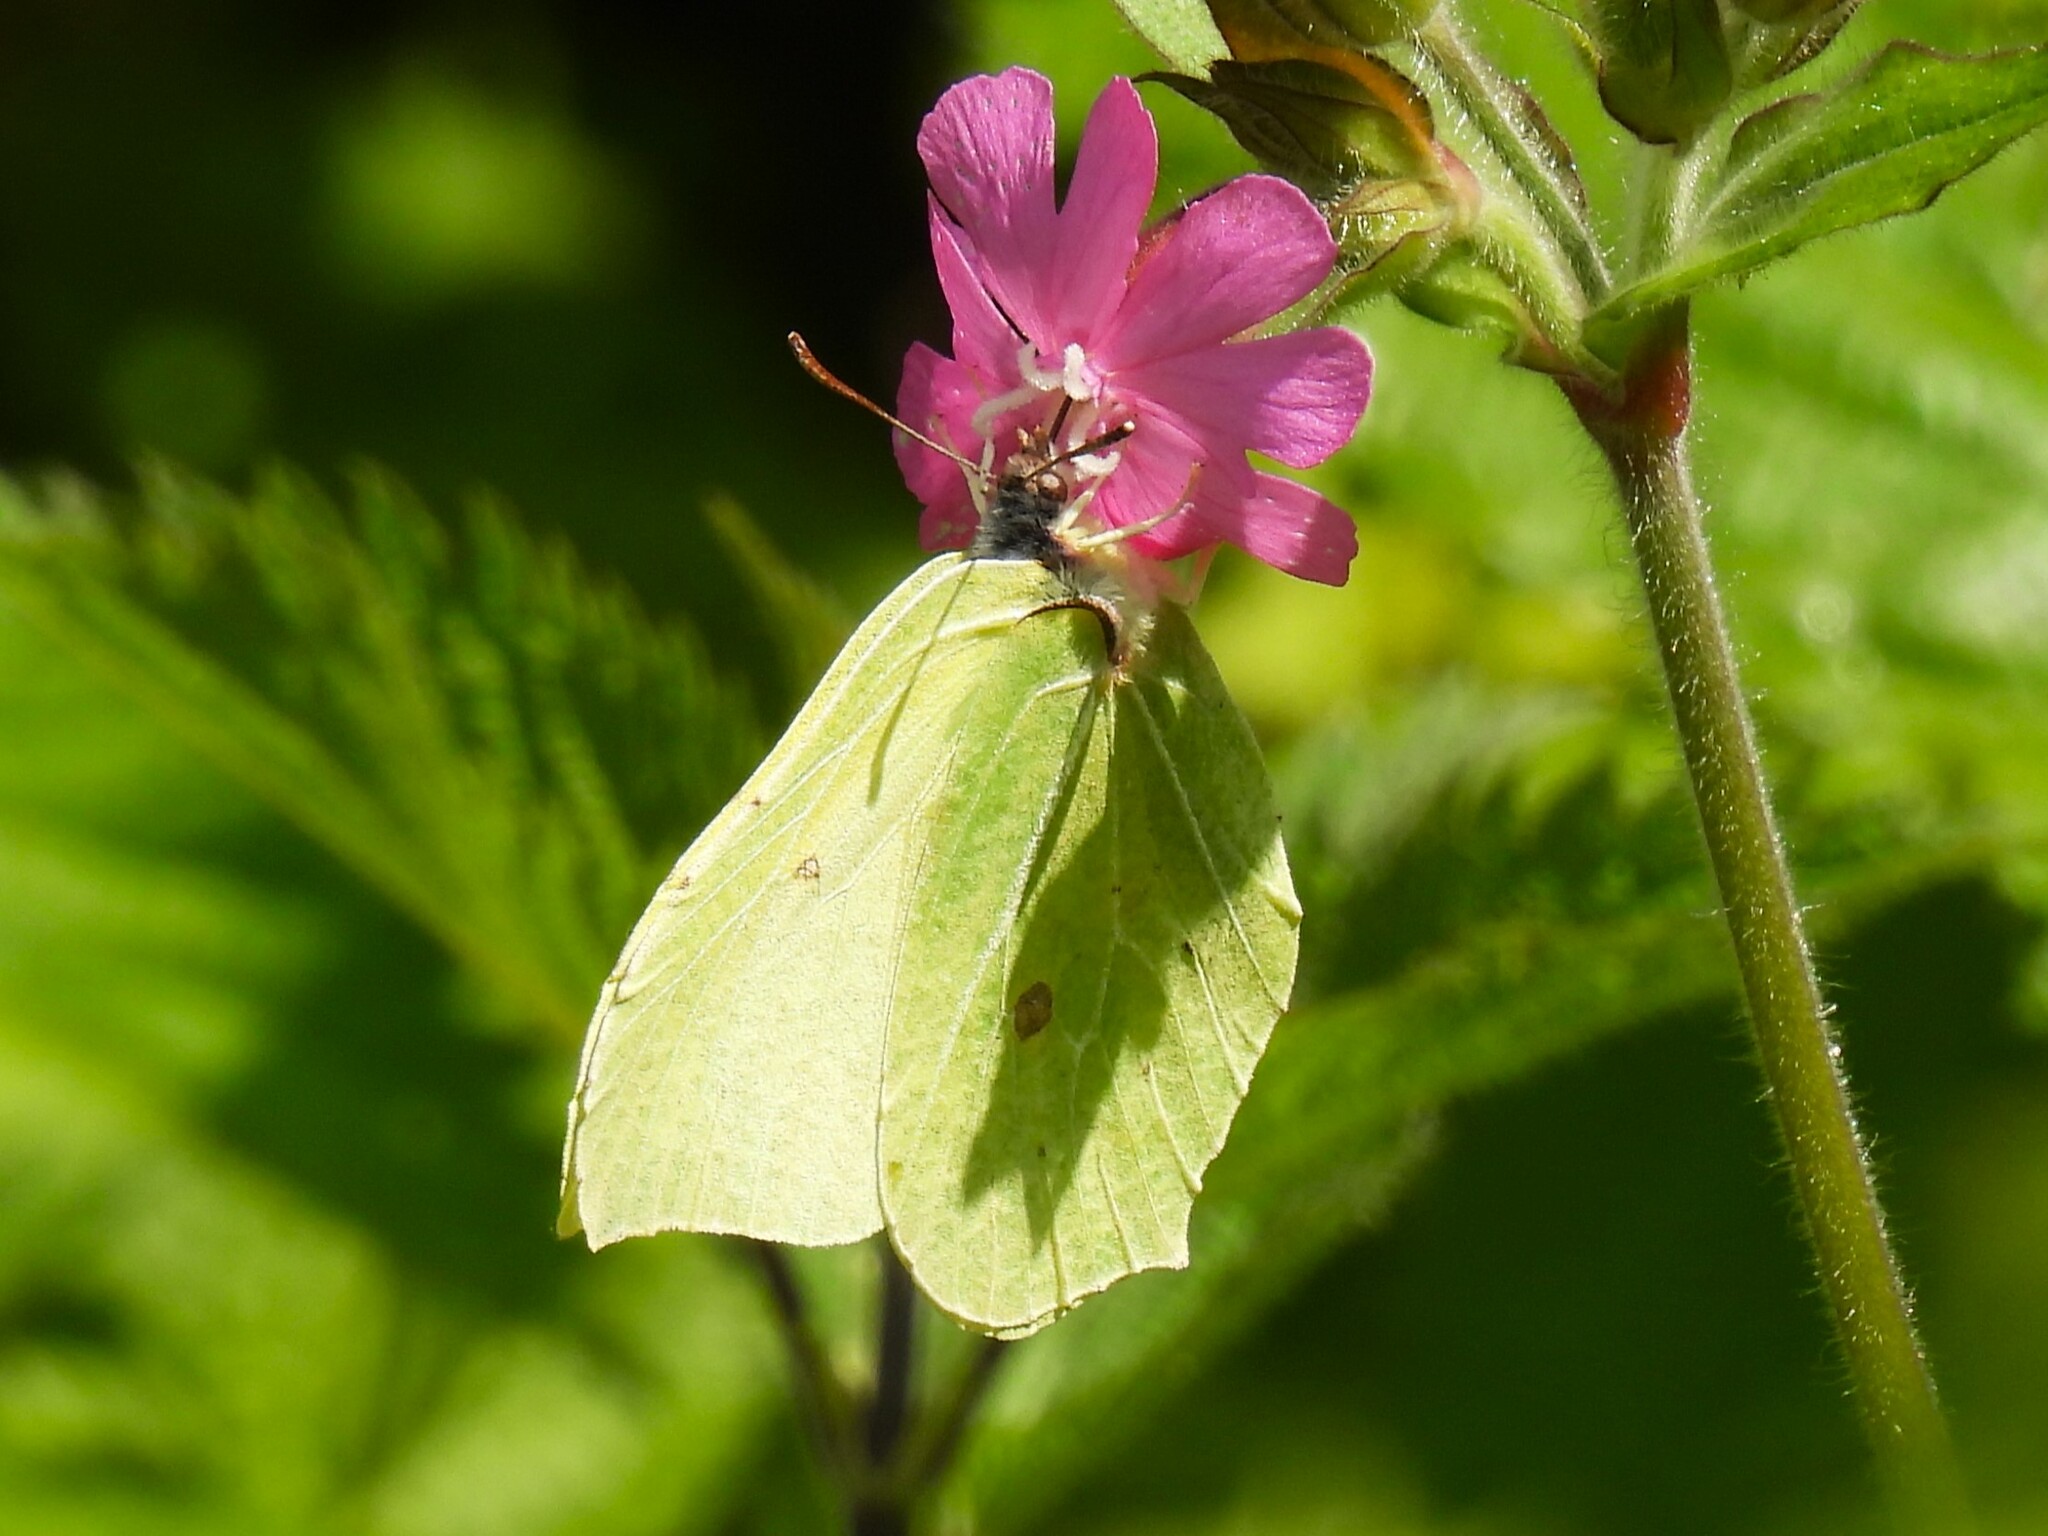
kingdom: Animalia
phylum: Arthropoda
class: Insecta
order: Lepidoptera
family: Pieridae
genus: Gonepteryx
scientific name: Gonepteryx rhamni
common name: Brimstone
